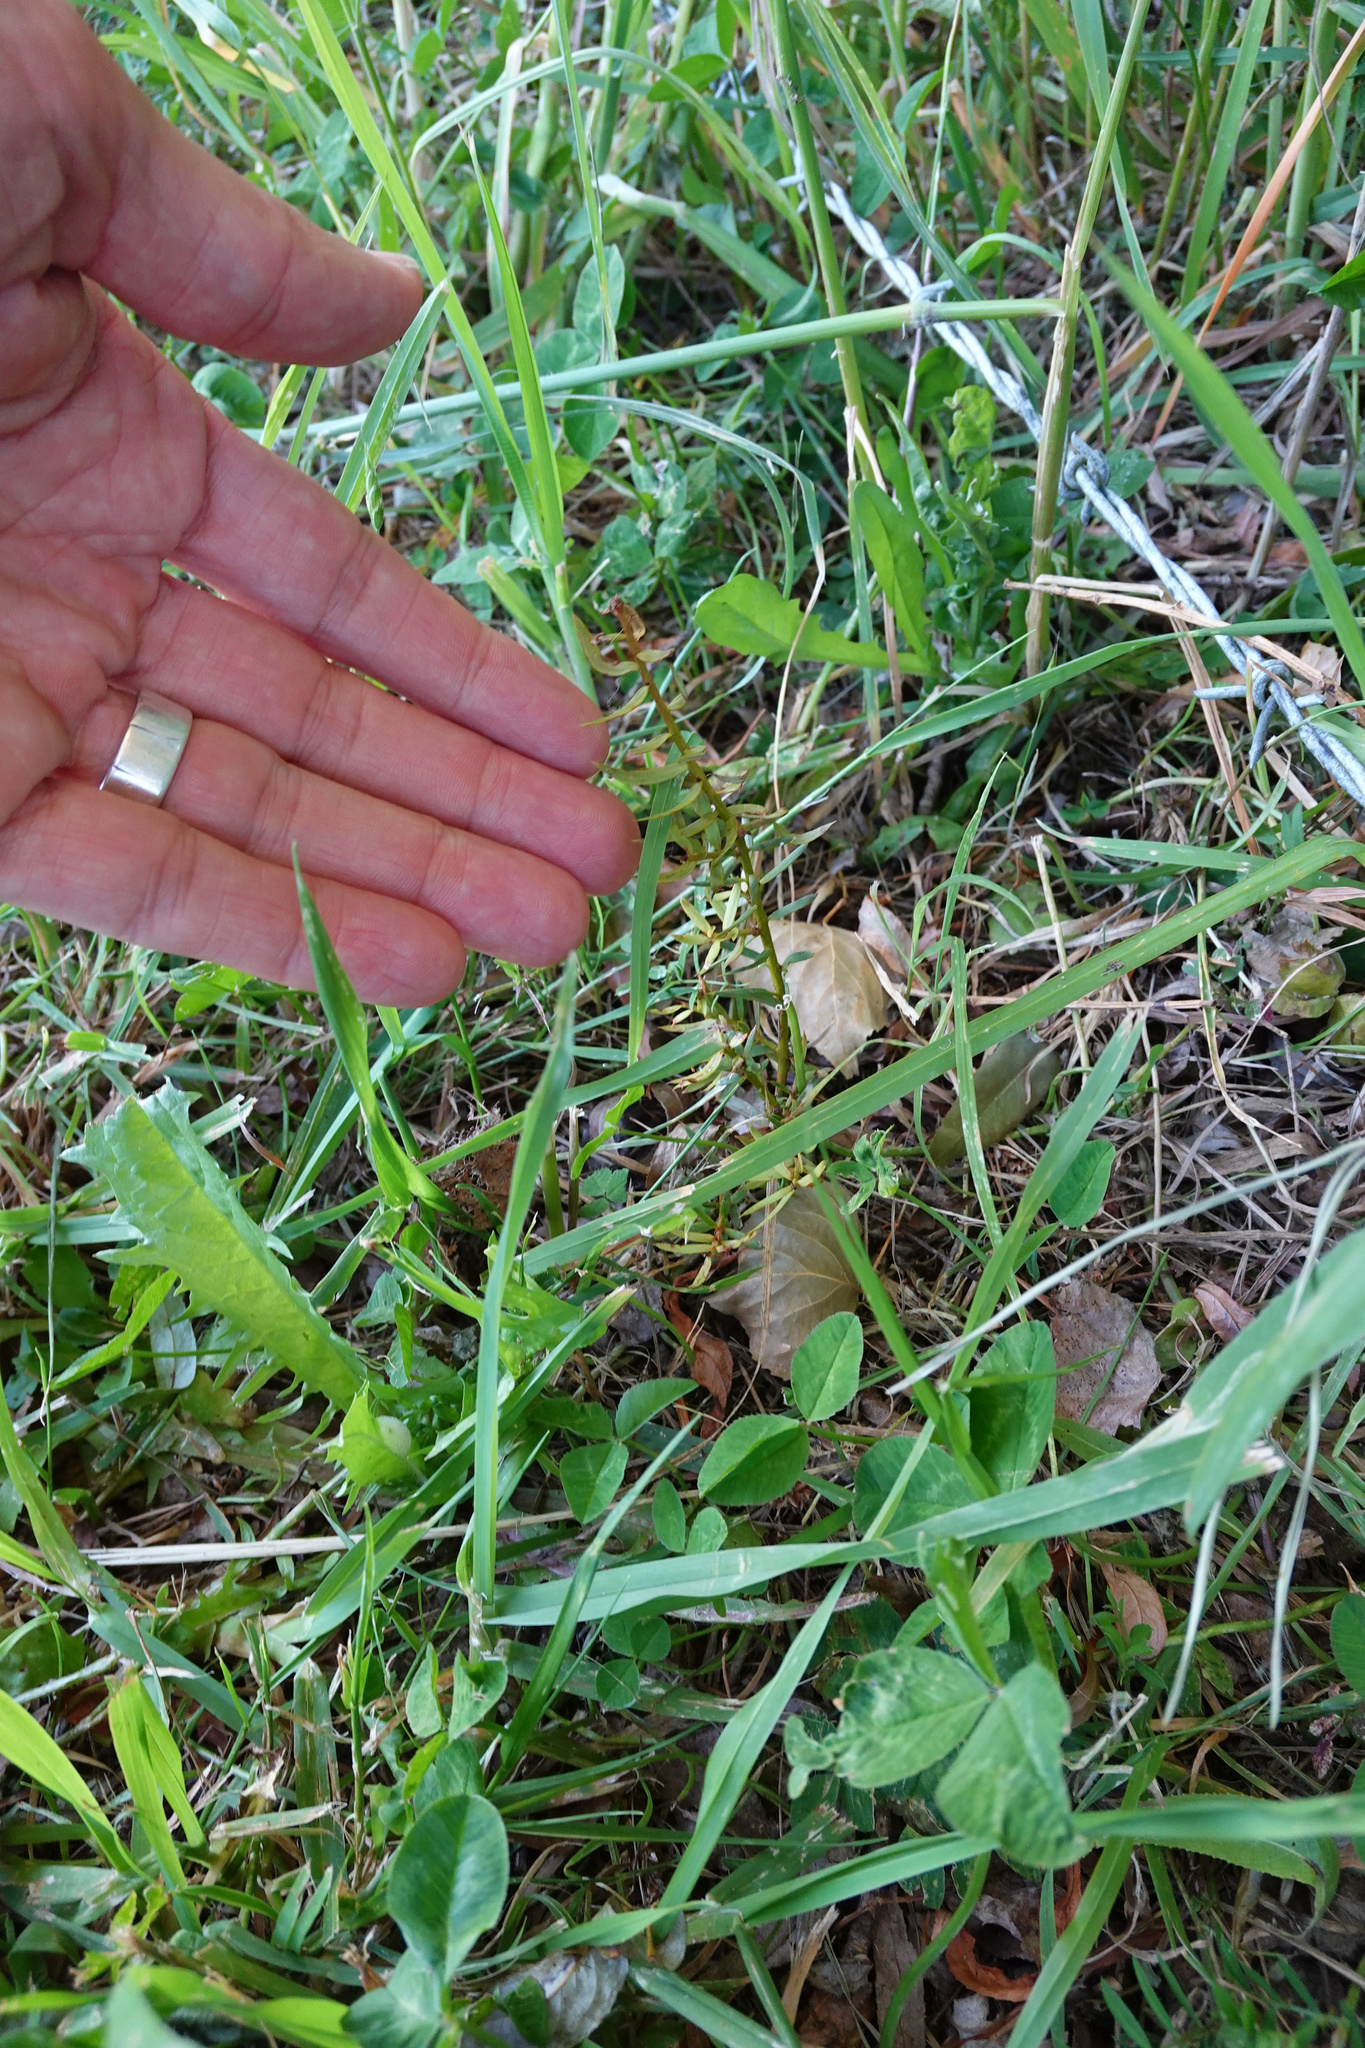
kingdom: Plantae
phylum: Tracheophyta
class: Pinopsida
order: Pinales
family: Podocarpaceae
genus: Podocarpus
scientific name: Podocarpus totara
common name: Totara
